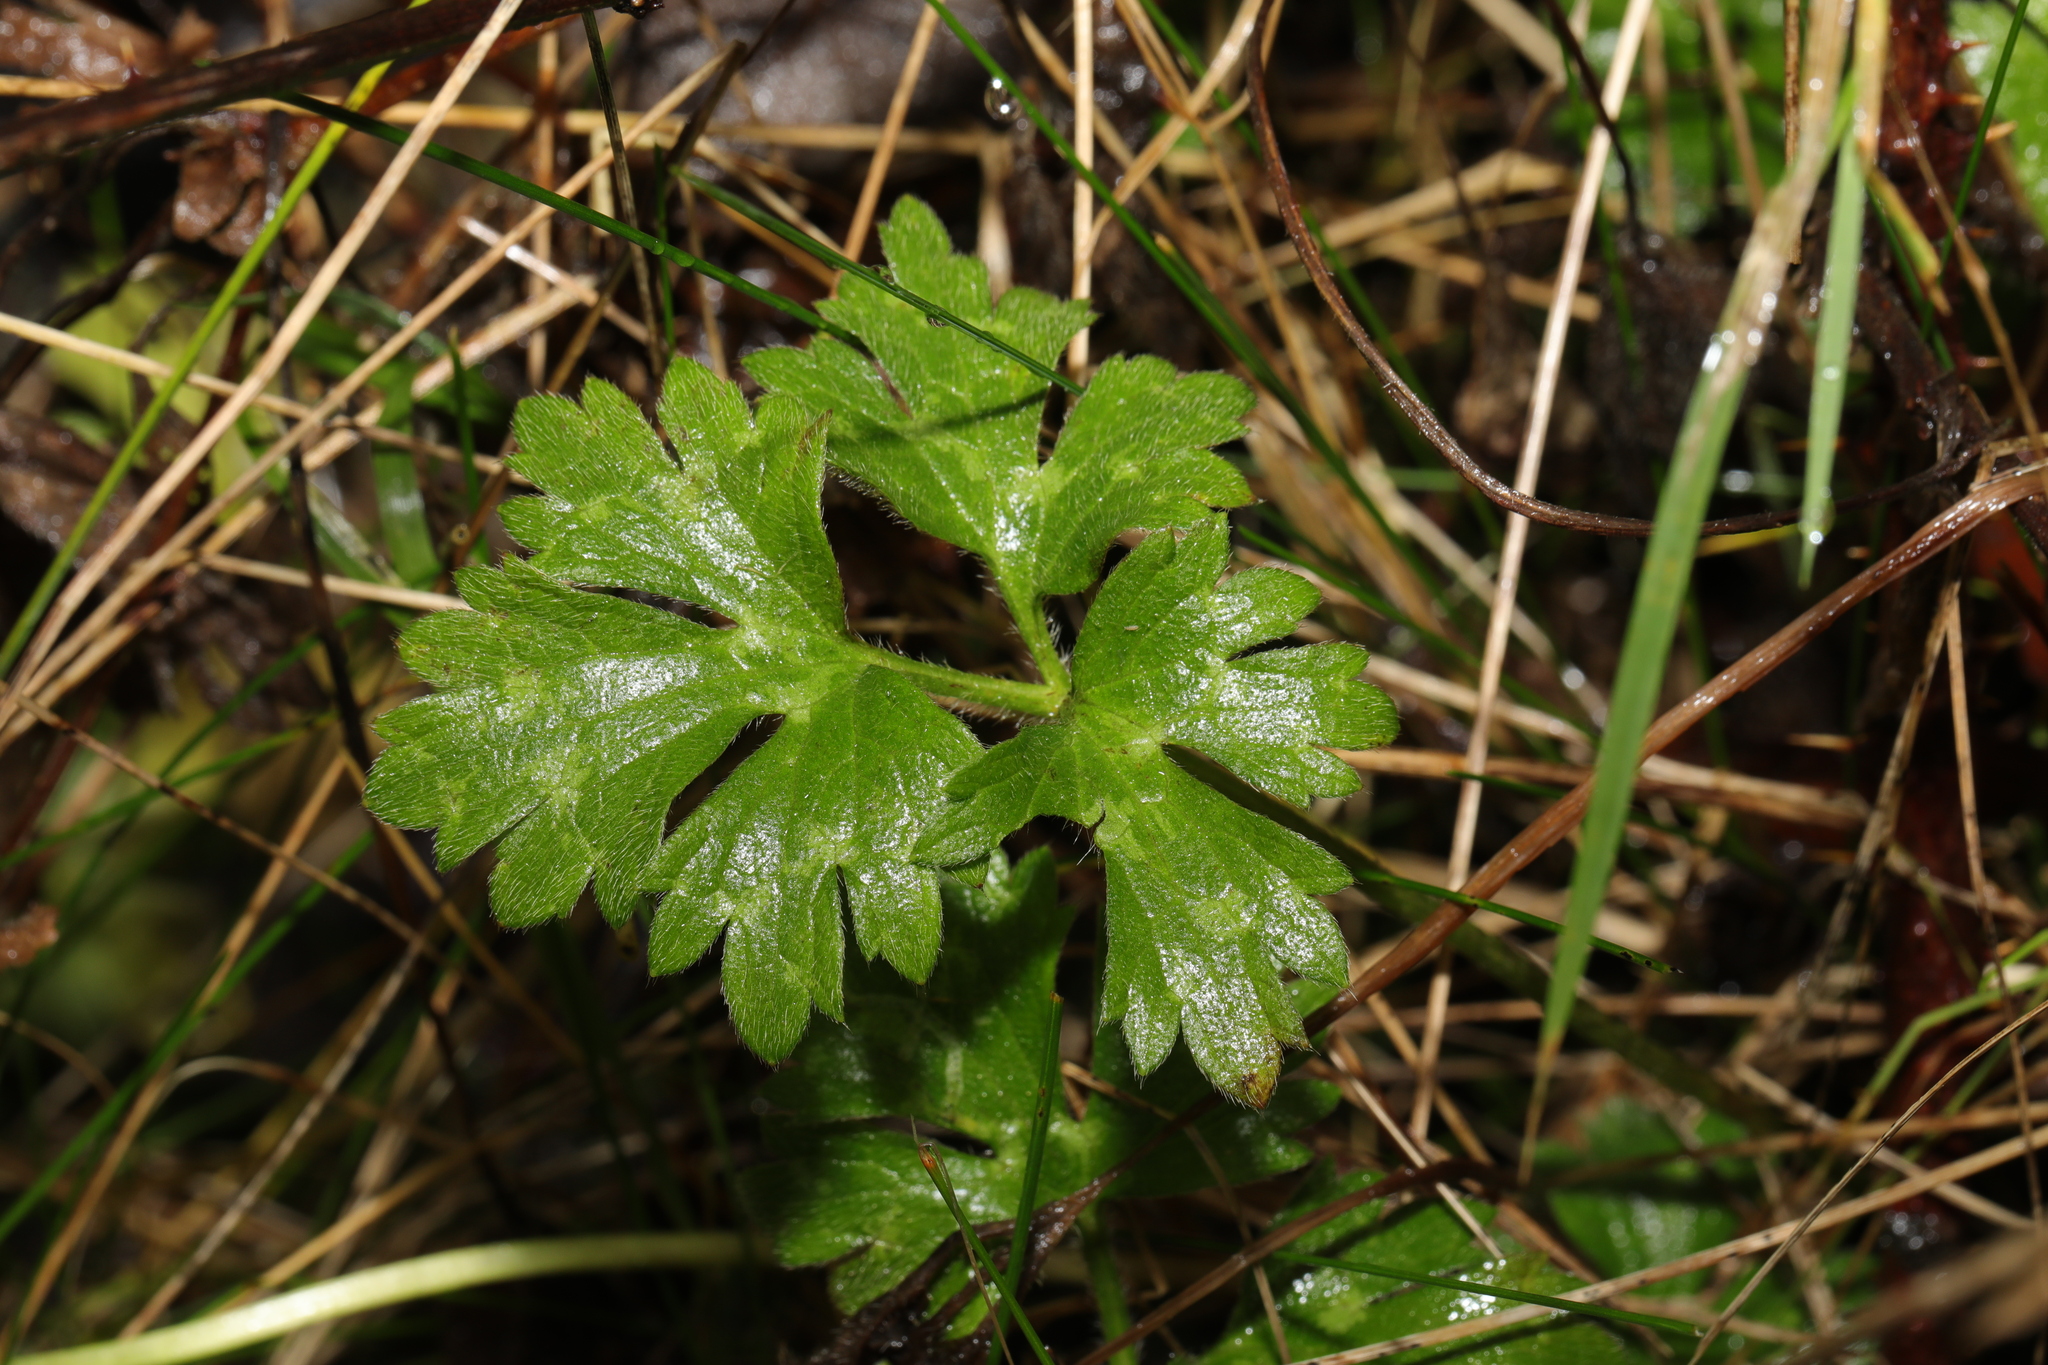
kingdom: Plantae
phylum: Tracheophyta
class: Magnoliopsida
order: Ranunculales
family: Ranunculaceae
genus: Ranunculus
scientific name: Ranunculus repens
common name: Creeping buttercup
